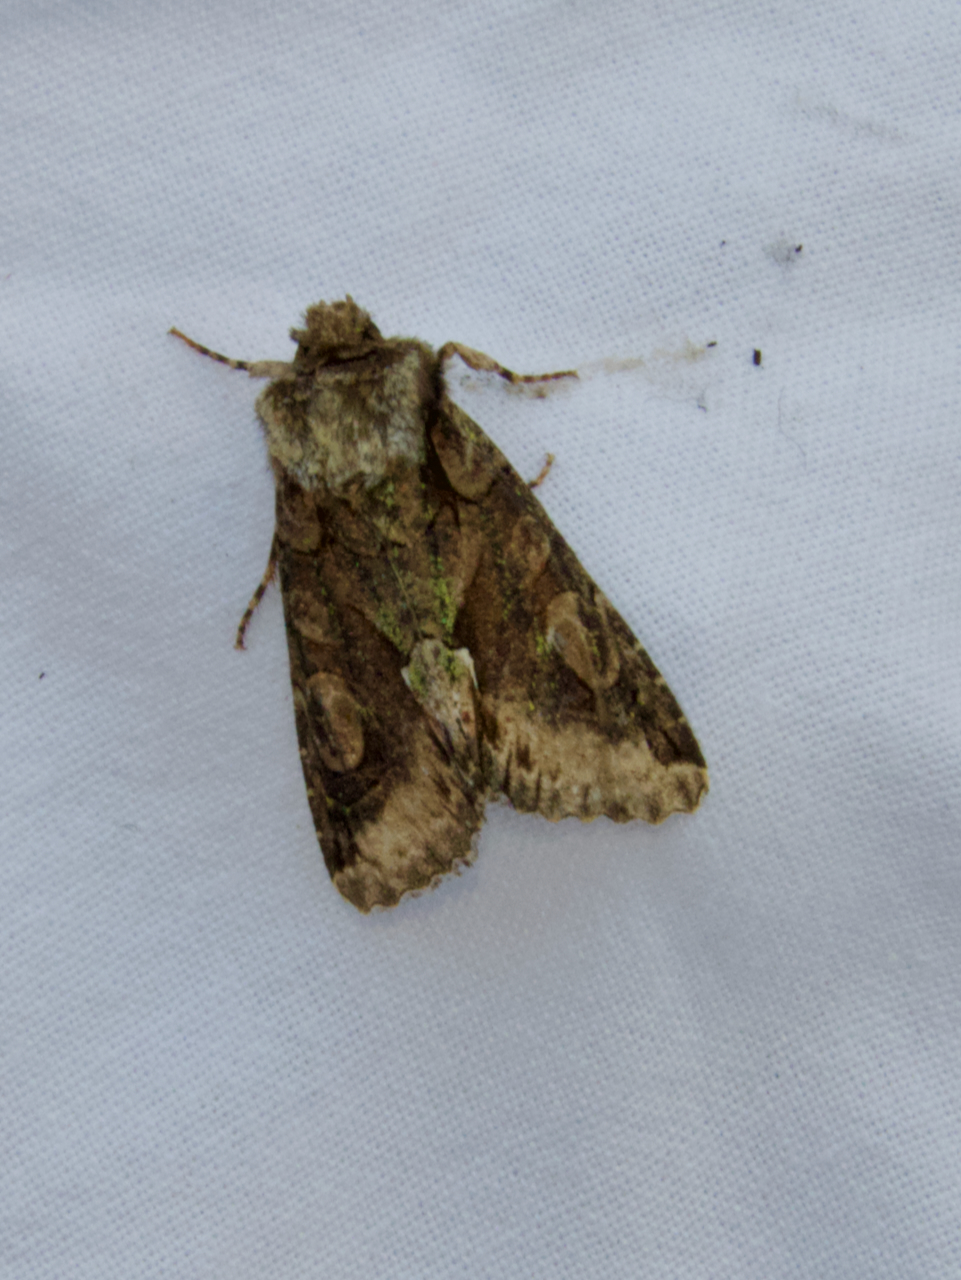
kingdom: Animalia
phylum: Arthropoda
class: Insecta
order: Lepidoptera
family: Noctuidae
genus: Allophyes
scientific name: Allophyes oxyacanthae
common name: Green-brindled crescent
